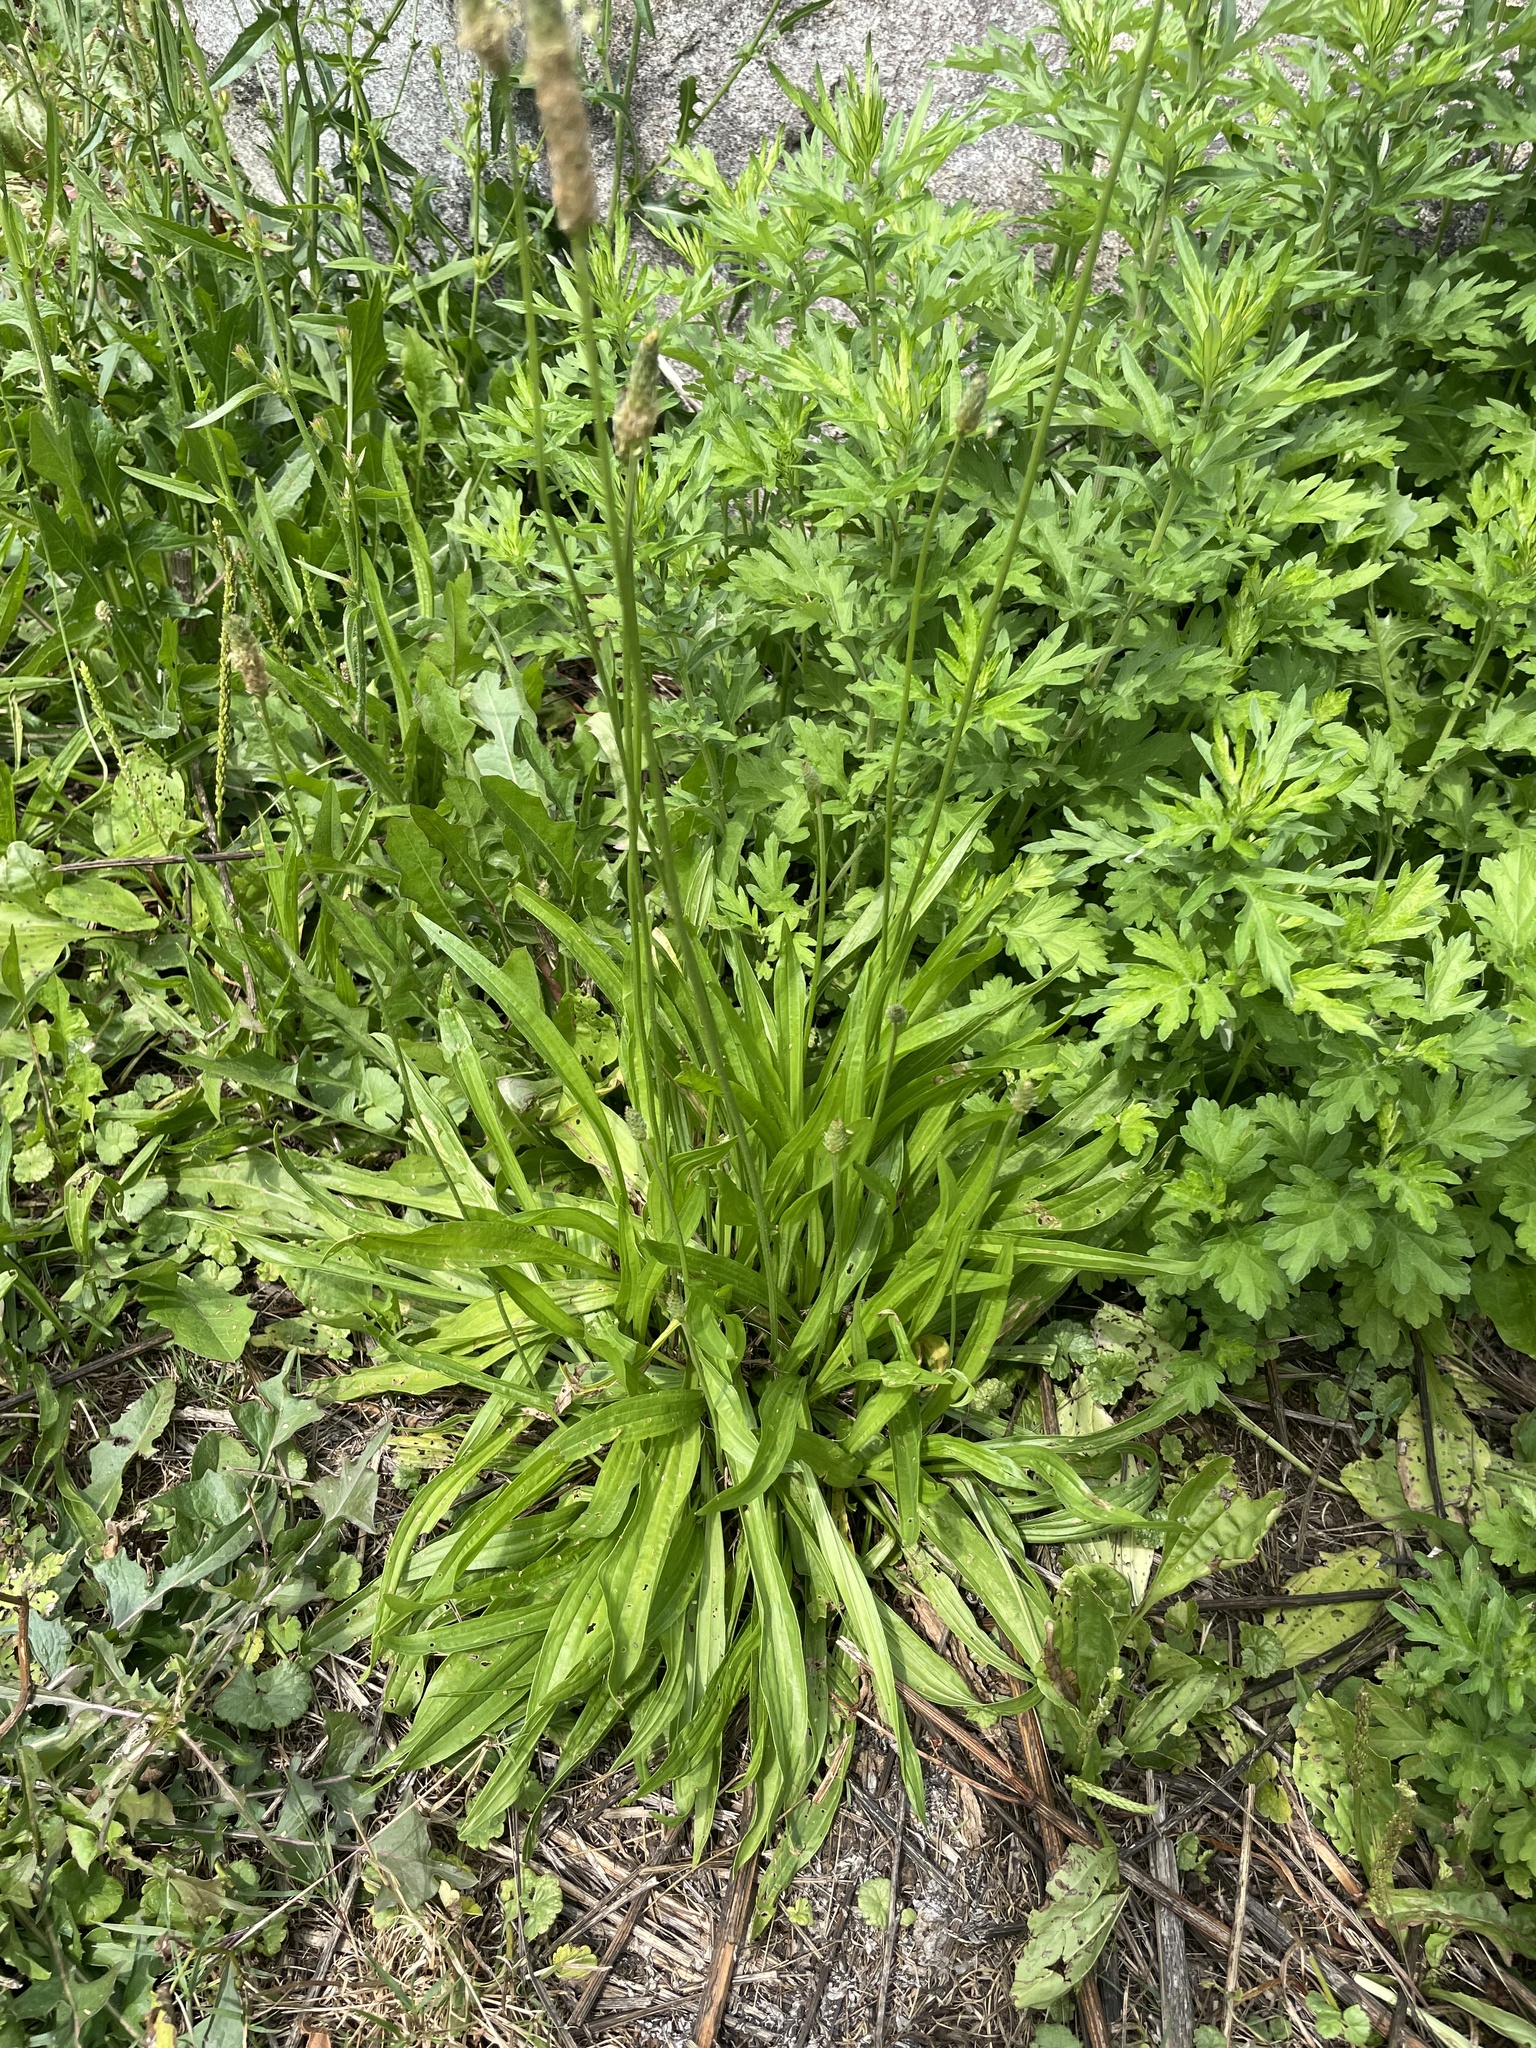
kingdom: Plantae
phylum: Tracheophyta
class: Magnoliopsida
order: Lamiales
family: Plantaginaceae
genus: Plantago
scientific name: Plantago lanceolata
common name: Ribwort plantain
